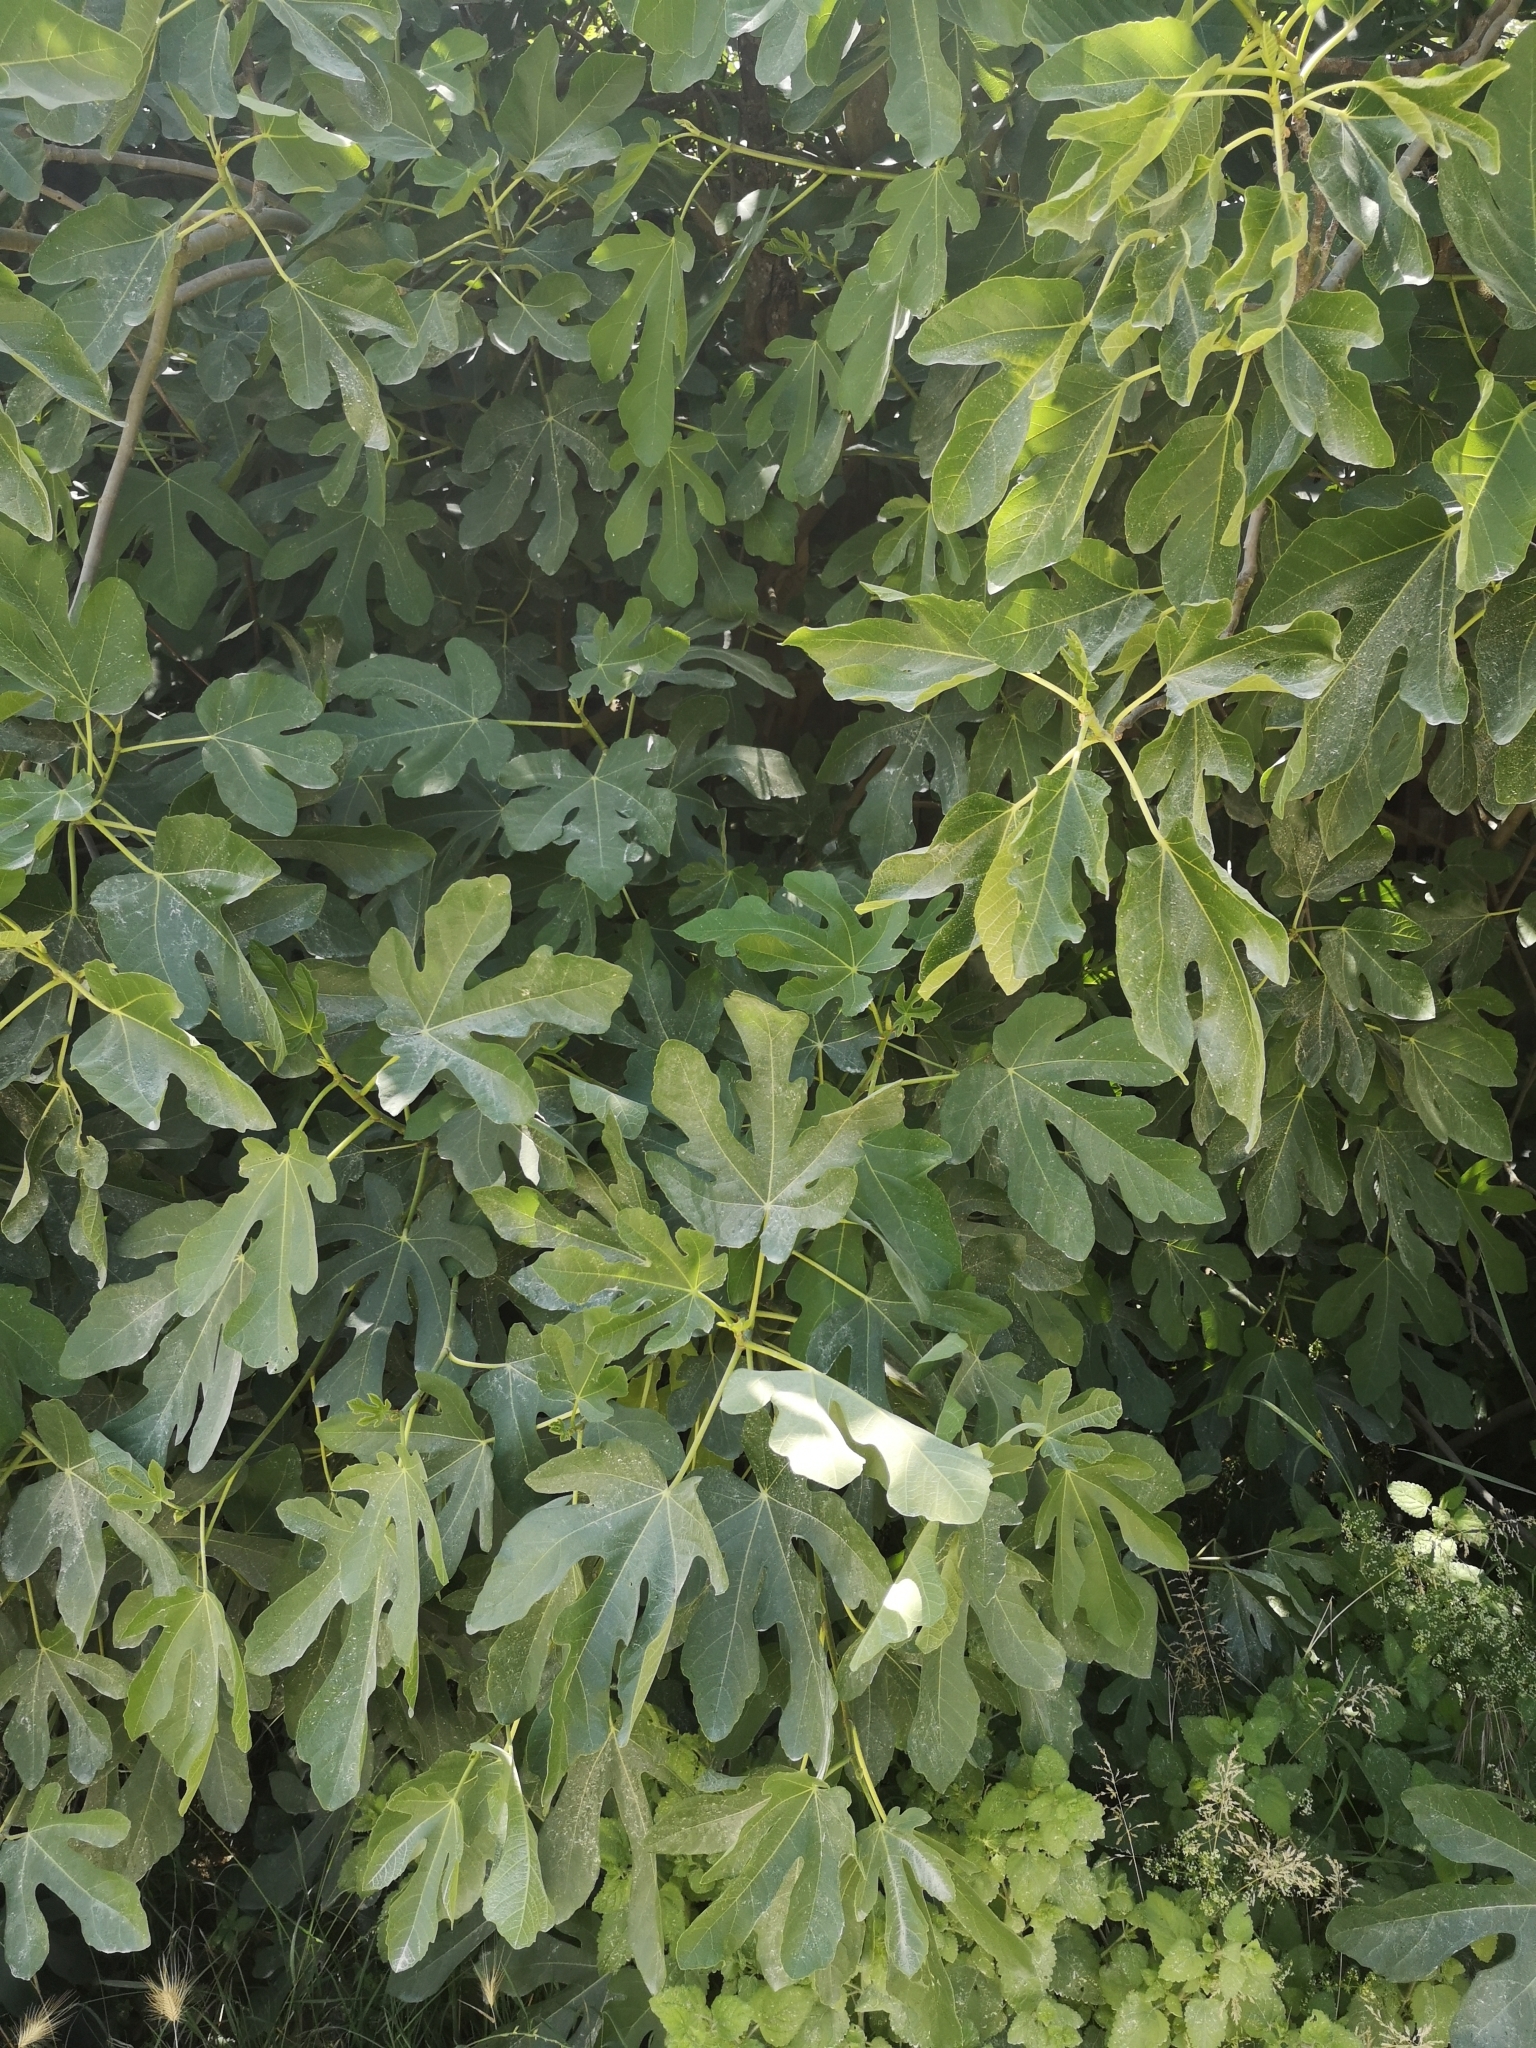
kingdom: Plantae
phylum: Tracheophyta
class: Magnoliopsida
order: Rosales
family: Moraceae
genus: Ficus
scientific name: Ficus carica
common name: Fig
